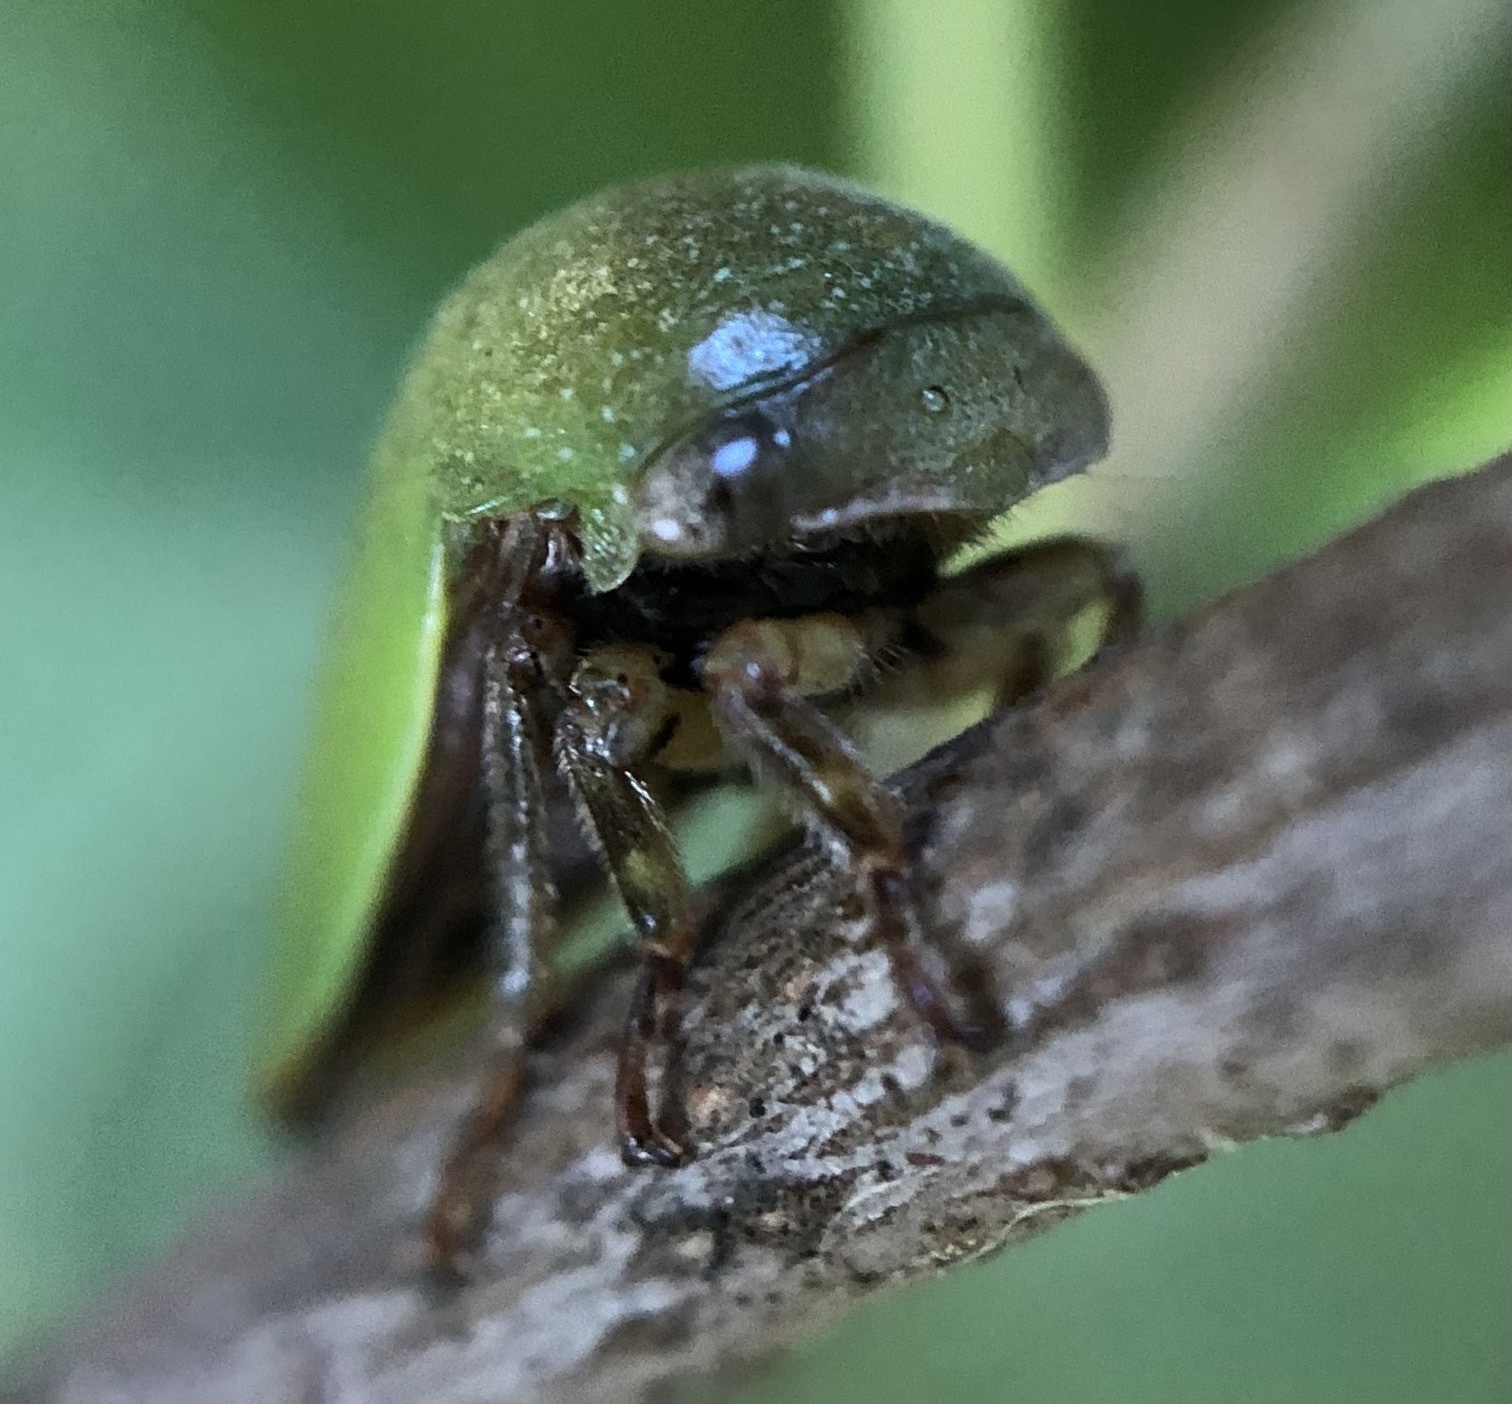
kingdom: Animalia
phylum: Arthropoda
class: Insecta
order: Hemiptera
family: Membracidae
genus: Hebetica
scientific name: Hebetica
